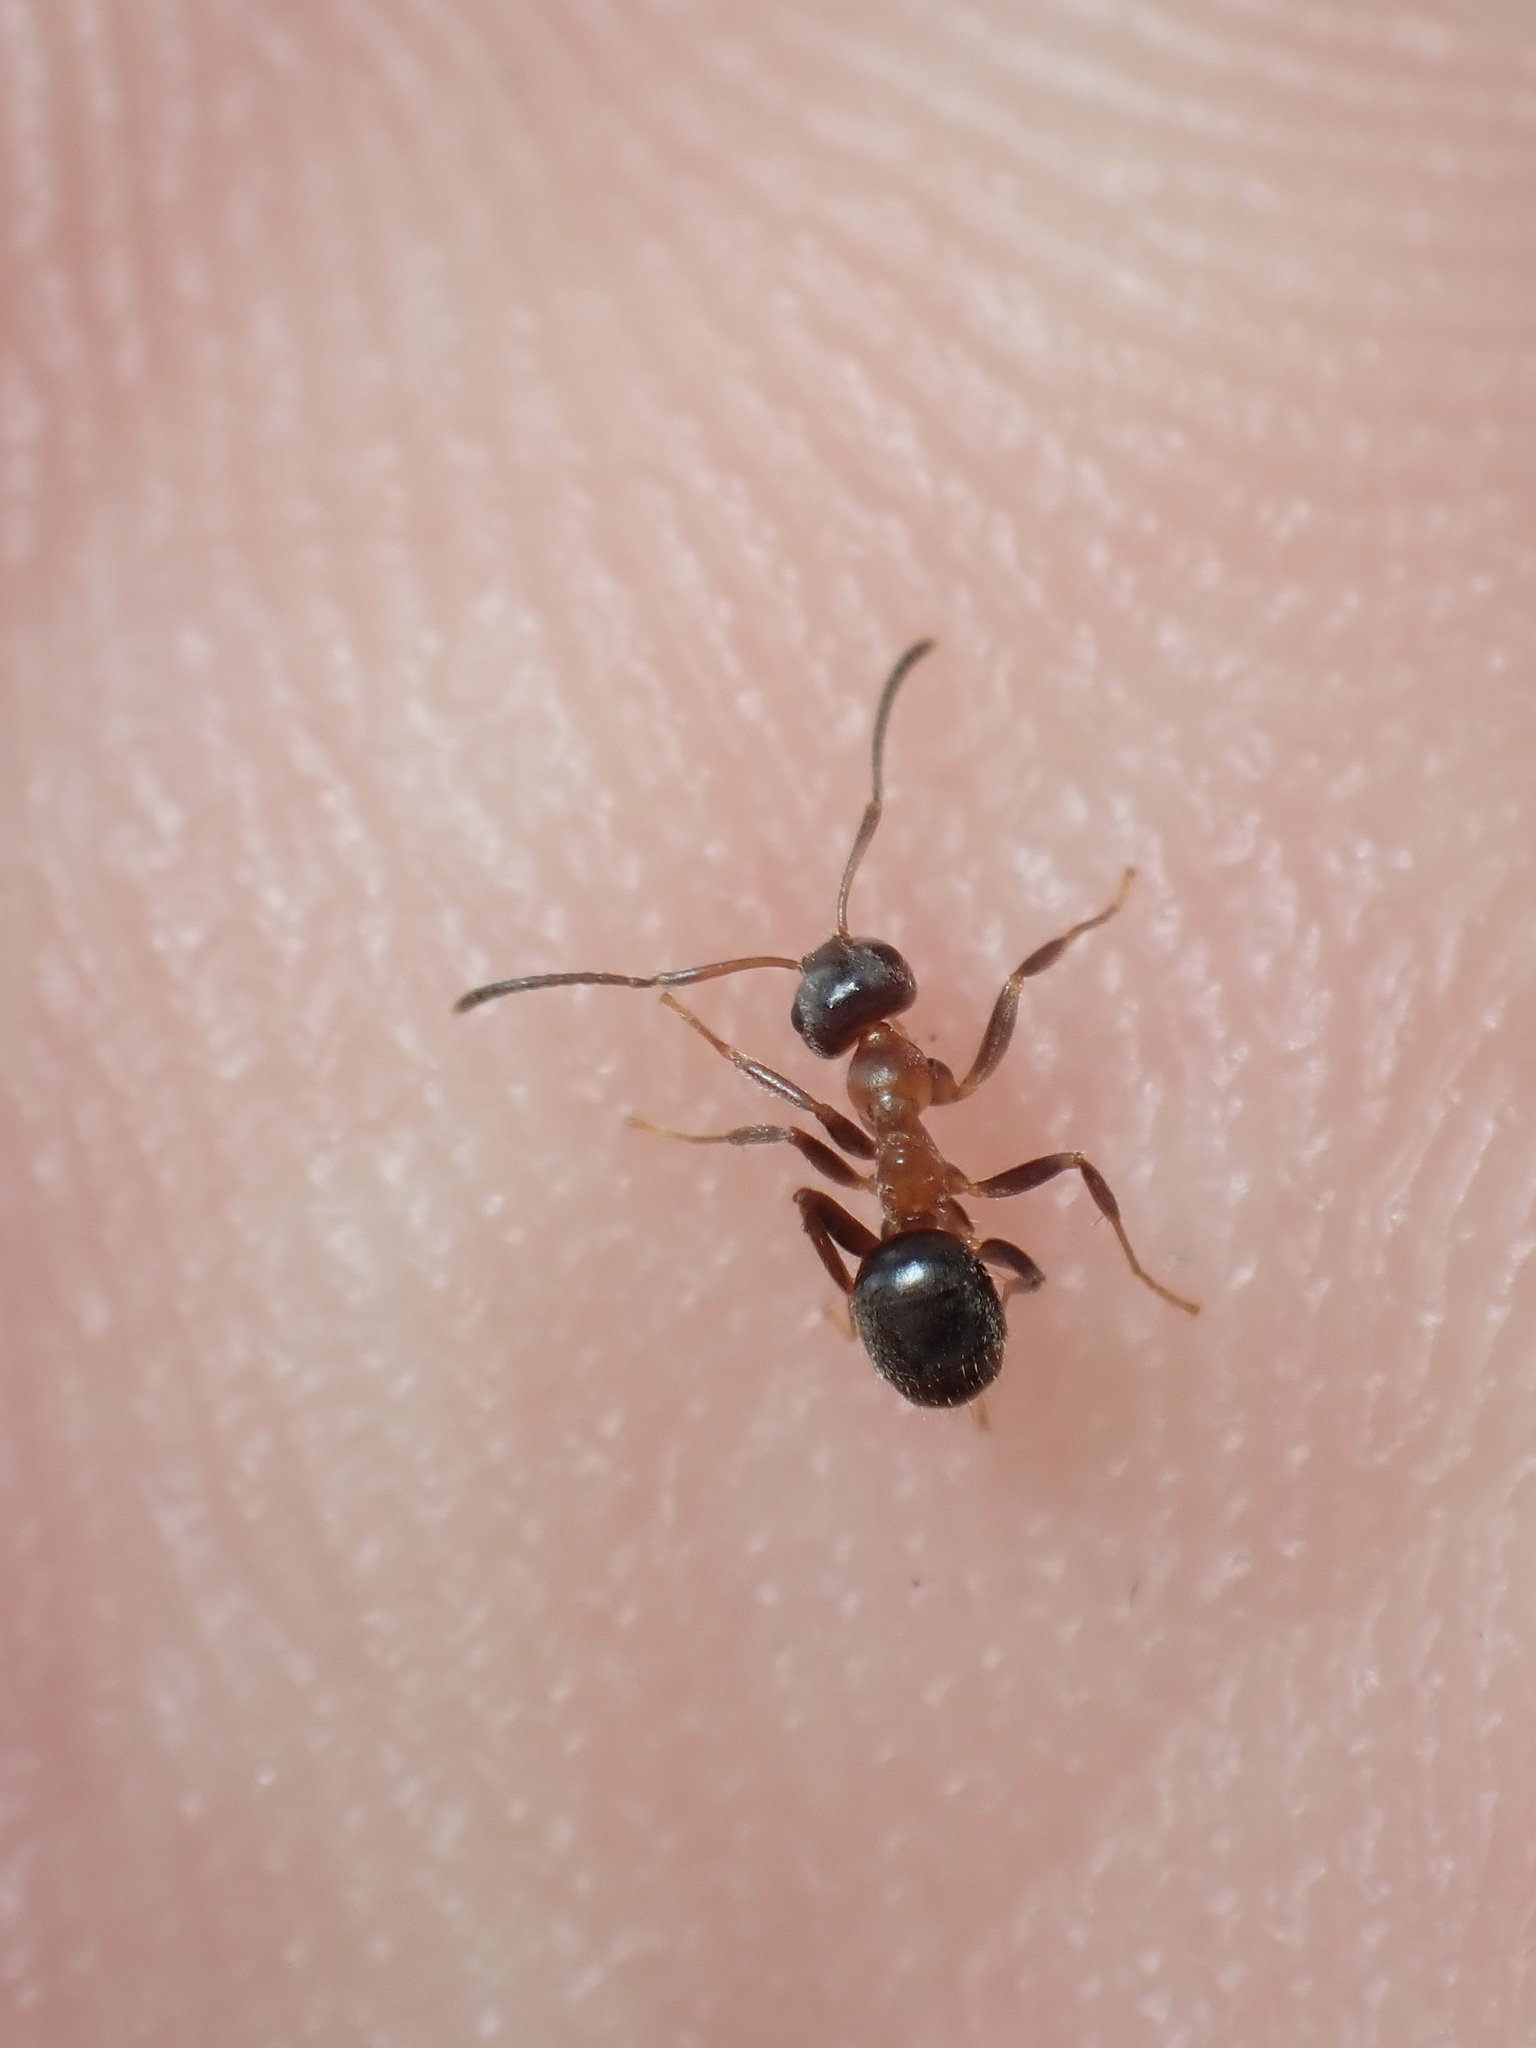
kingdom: Animalia
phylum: Arthropoda
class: Insecta
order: Hymenoptera
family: Formicidae
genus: Lasius
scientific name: Lasius emarginatus
